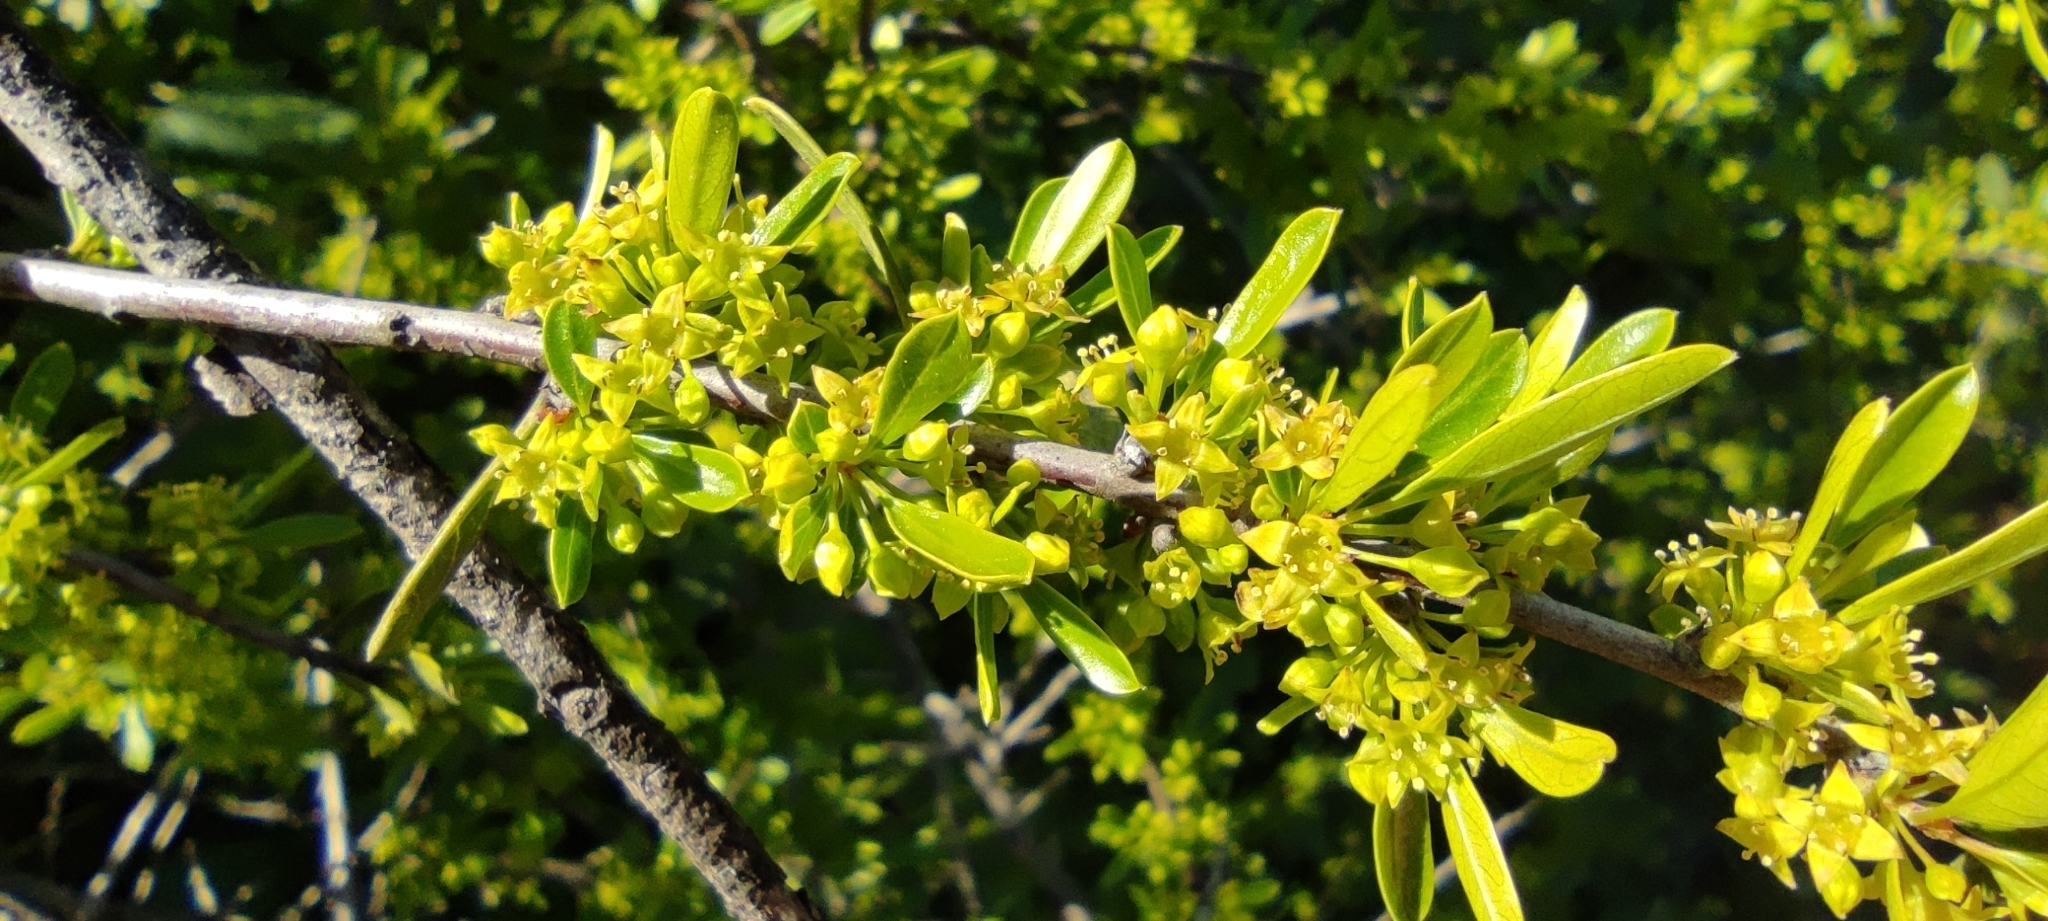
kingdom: Plantae
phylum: Tracheophyta
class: Magnoliopsida
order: Rosales
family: Rhamnaceae
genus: Rhamnus
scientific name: Rhamnus oleoides
